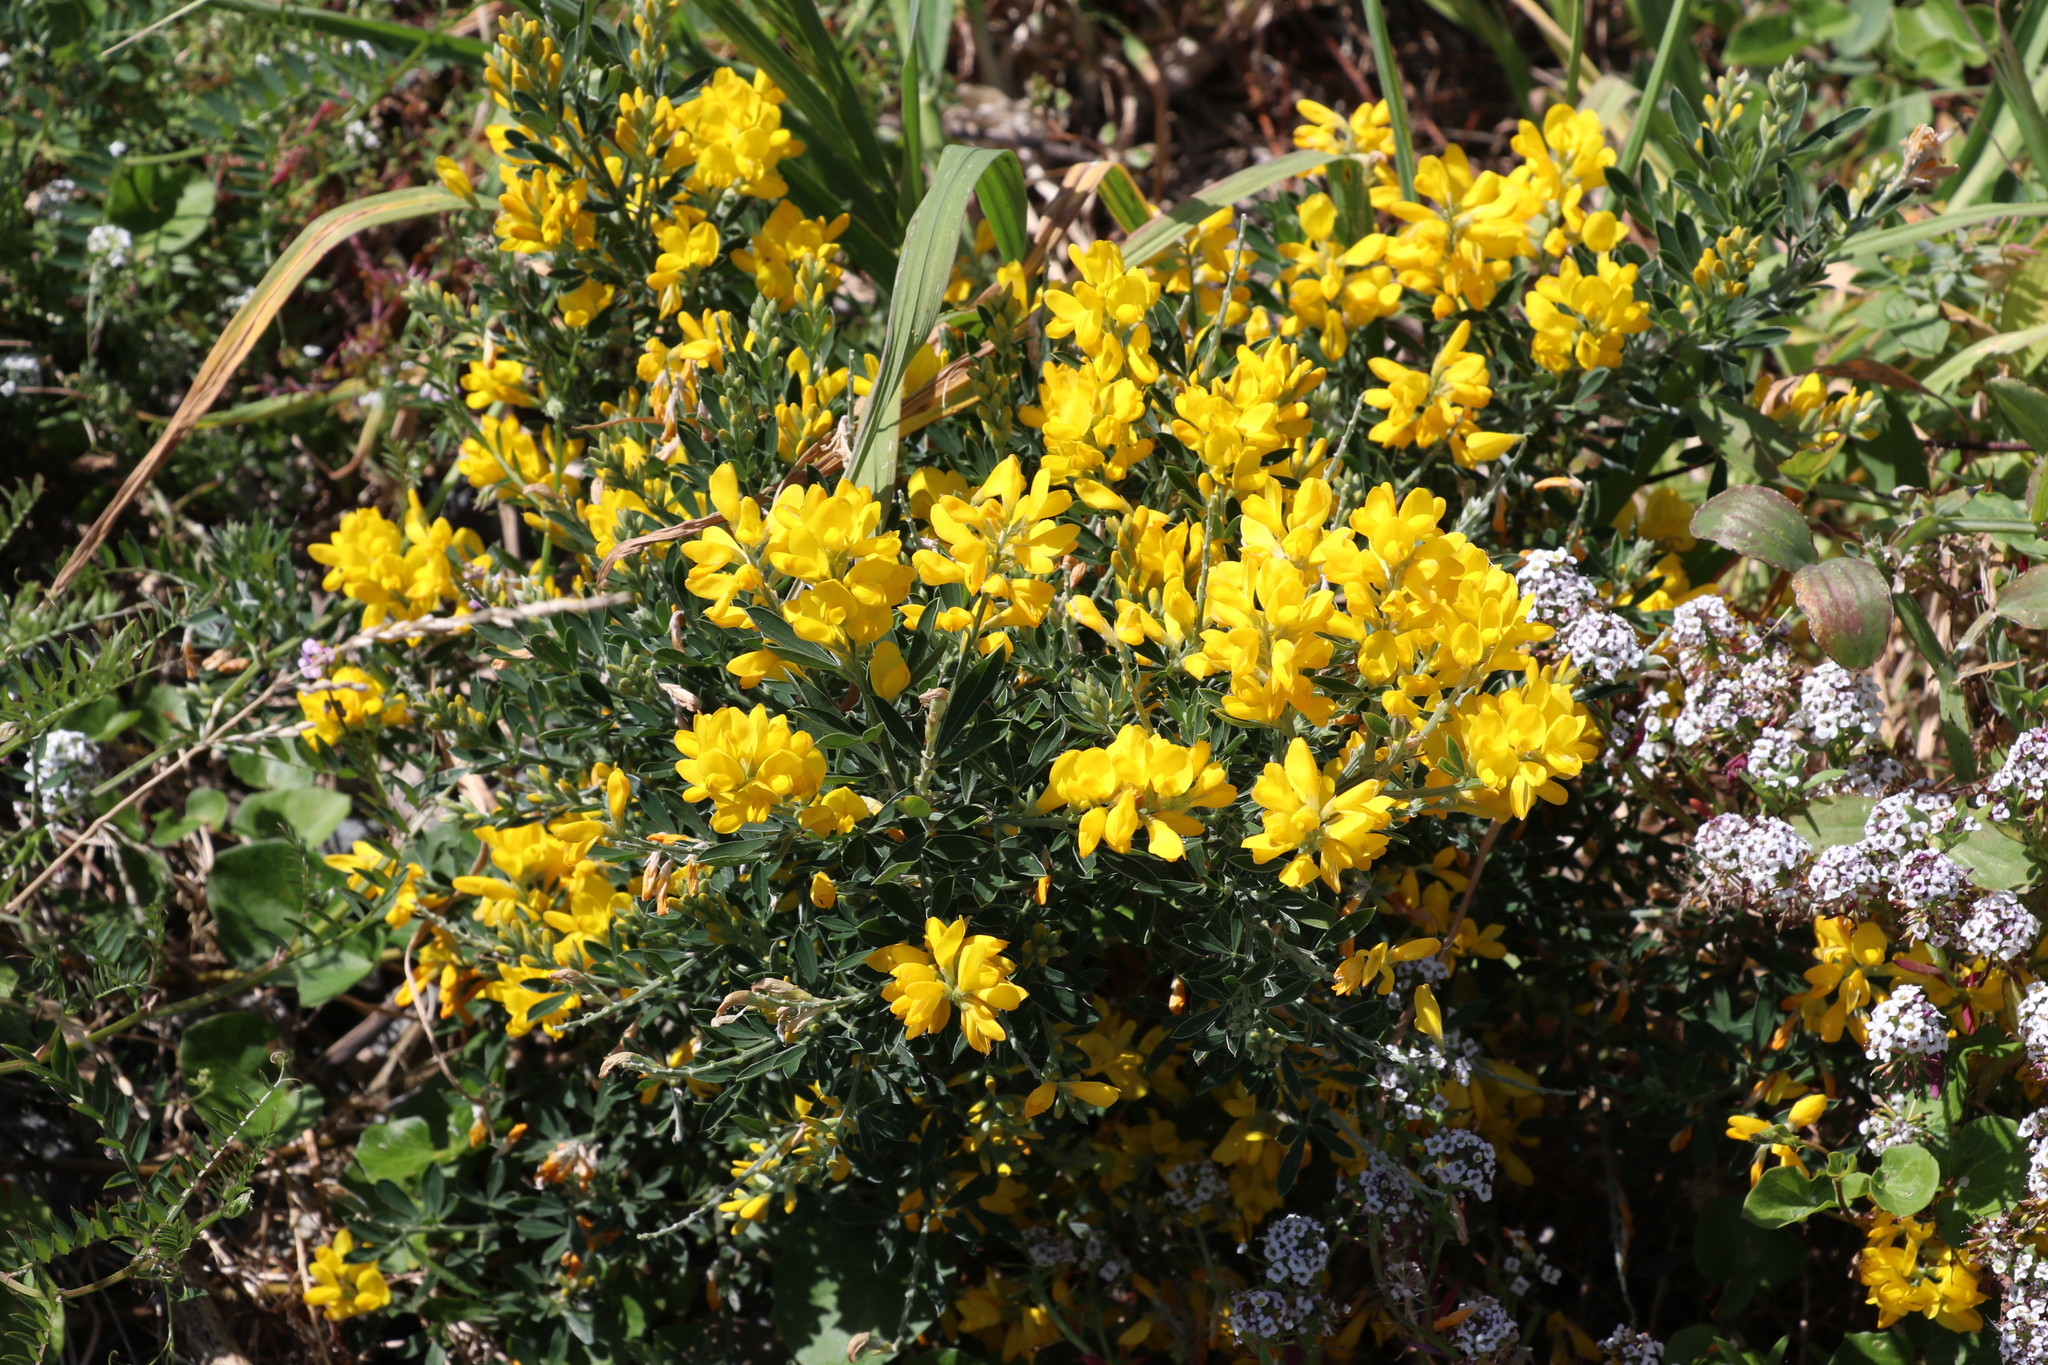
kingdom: Plantae
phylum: Tracheophyta
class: Magnoliopsida
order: Fabales
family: Fabaceae
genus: Genista
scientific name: Genista monspessulana
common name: Montpellier broom
